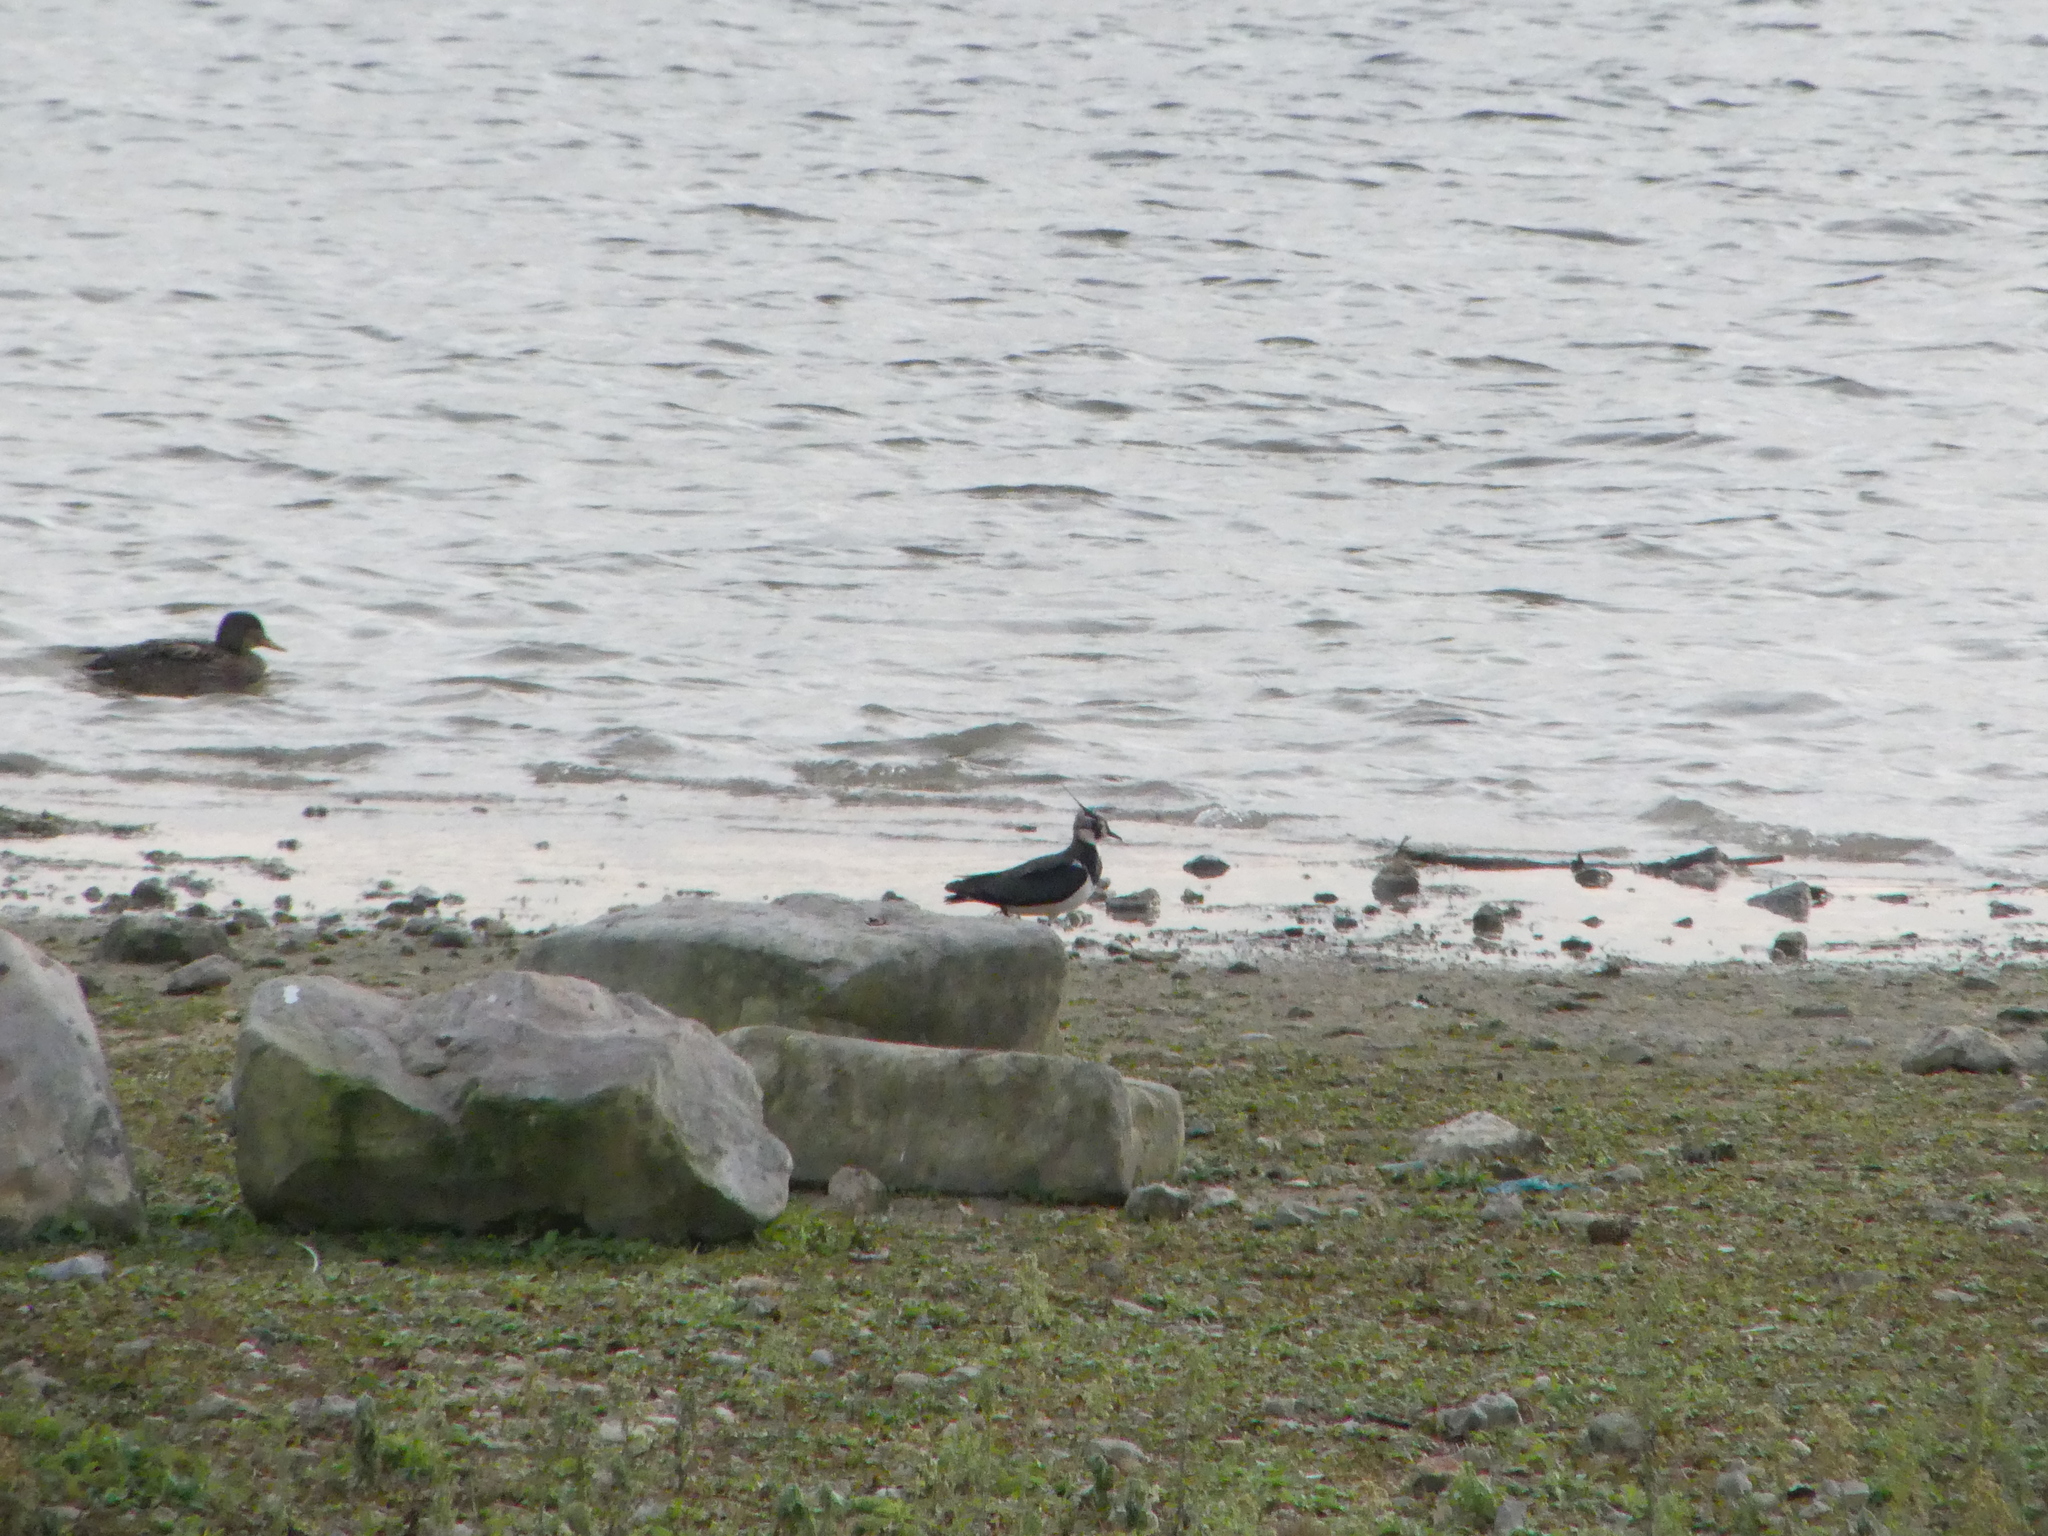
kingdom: Animalia
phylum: Chordata
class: Aves
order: Charadriiformes
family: Charadriidae
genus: Vanellus
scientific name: Vanellus vanellus
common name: Northern lapwing
